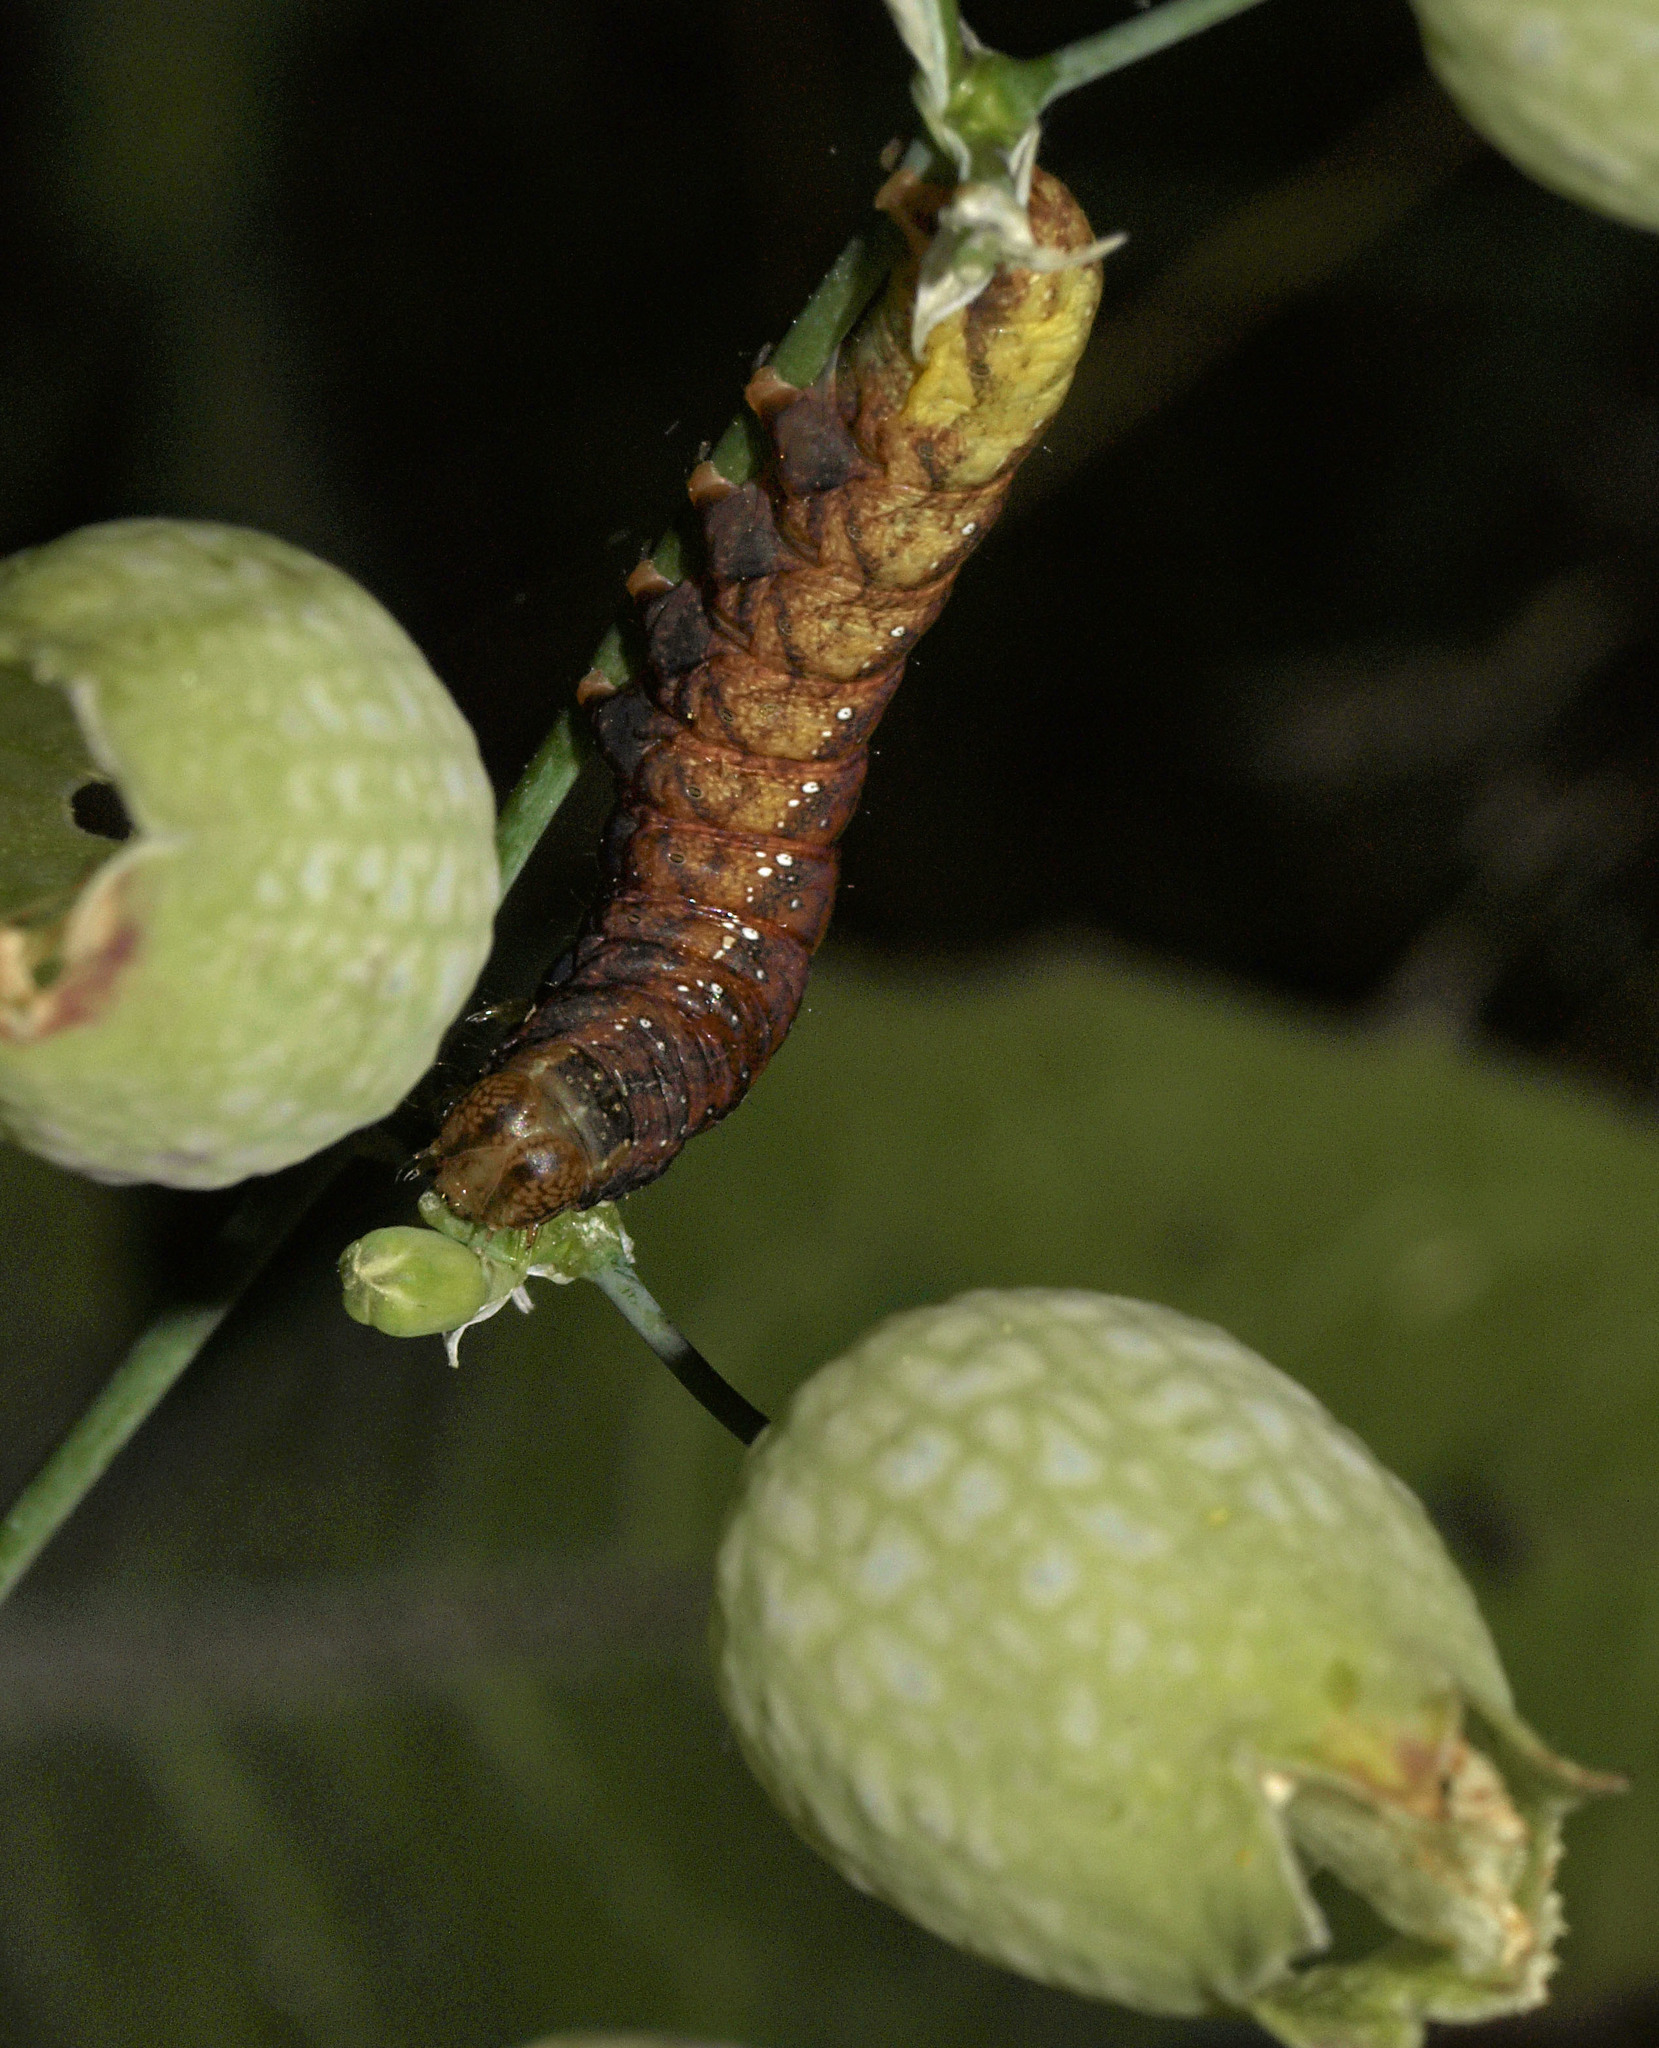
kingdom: Animalia
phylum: Arthropoda
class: Insecta
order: Lepidoptera
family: Noctuidae
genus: Sideridis
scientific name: Sideridis rivularis
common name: Campion
